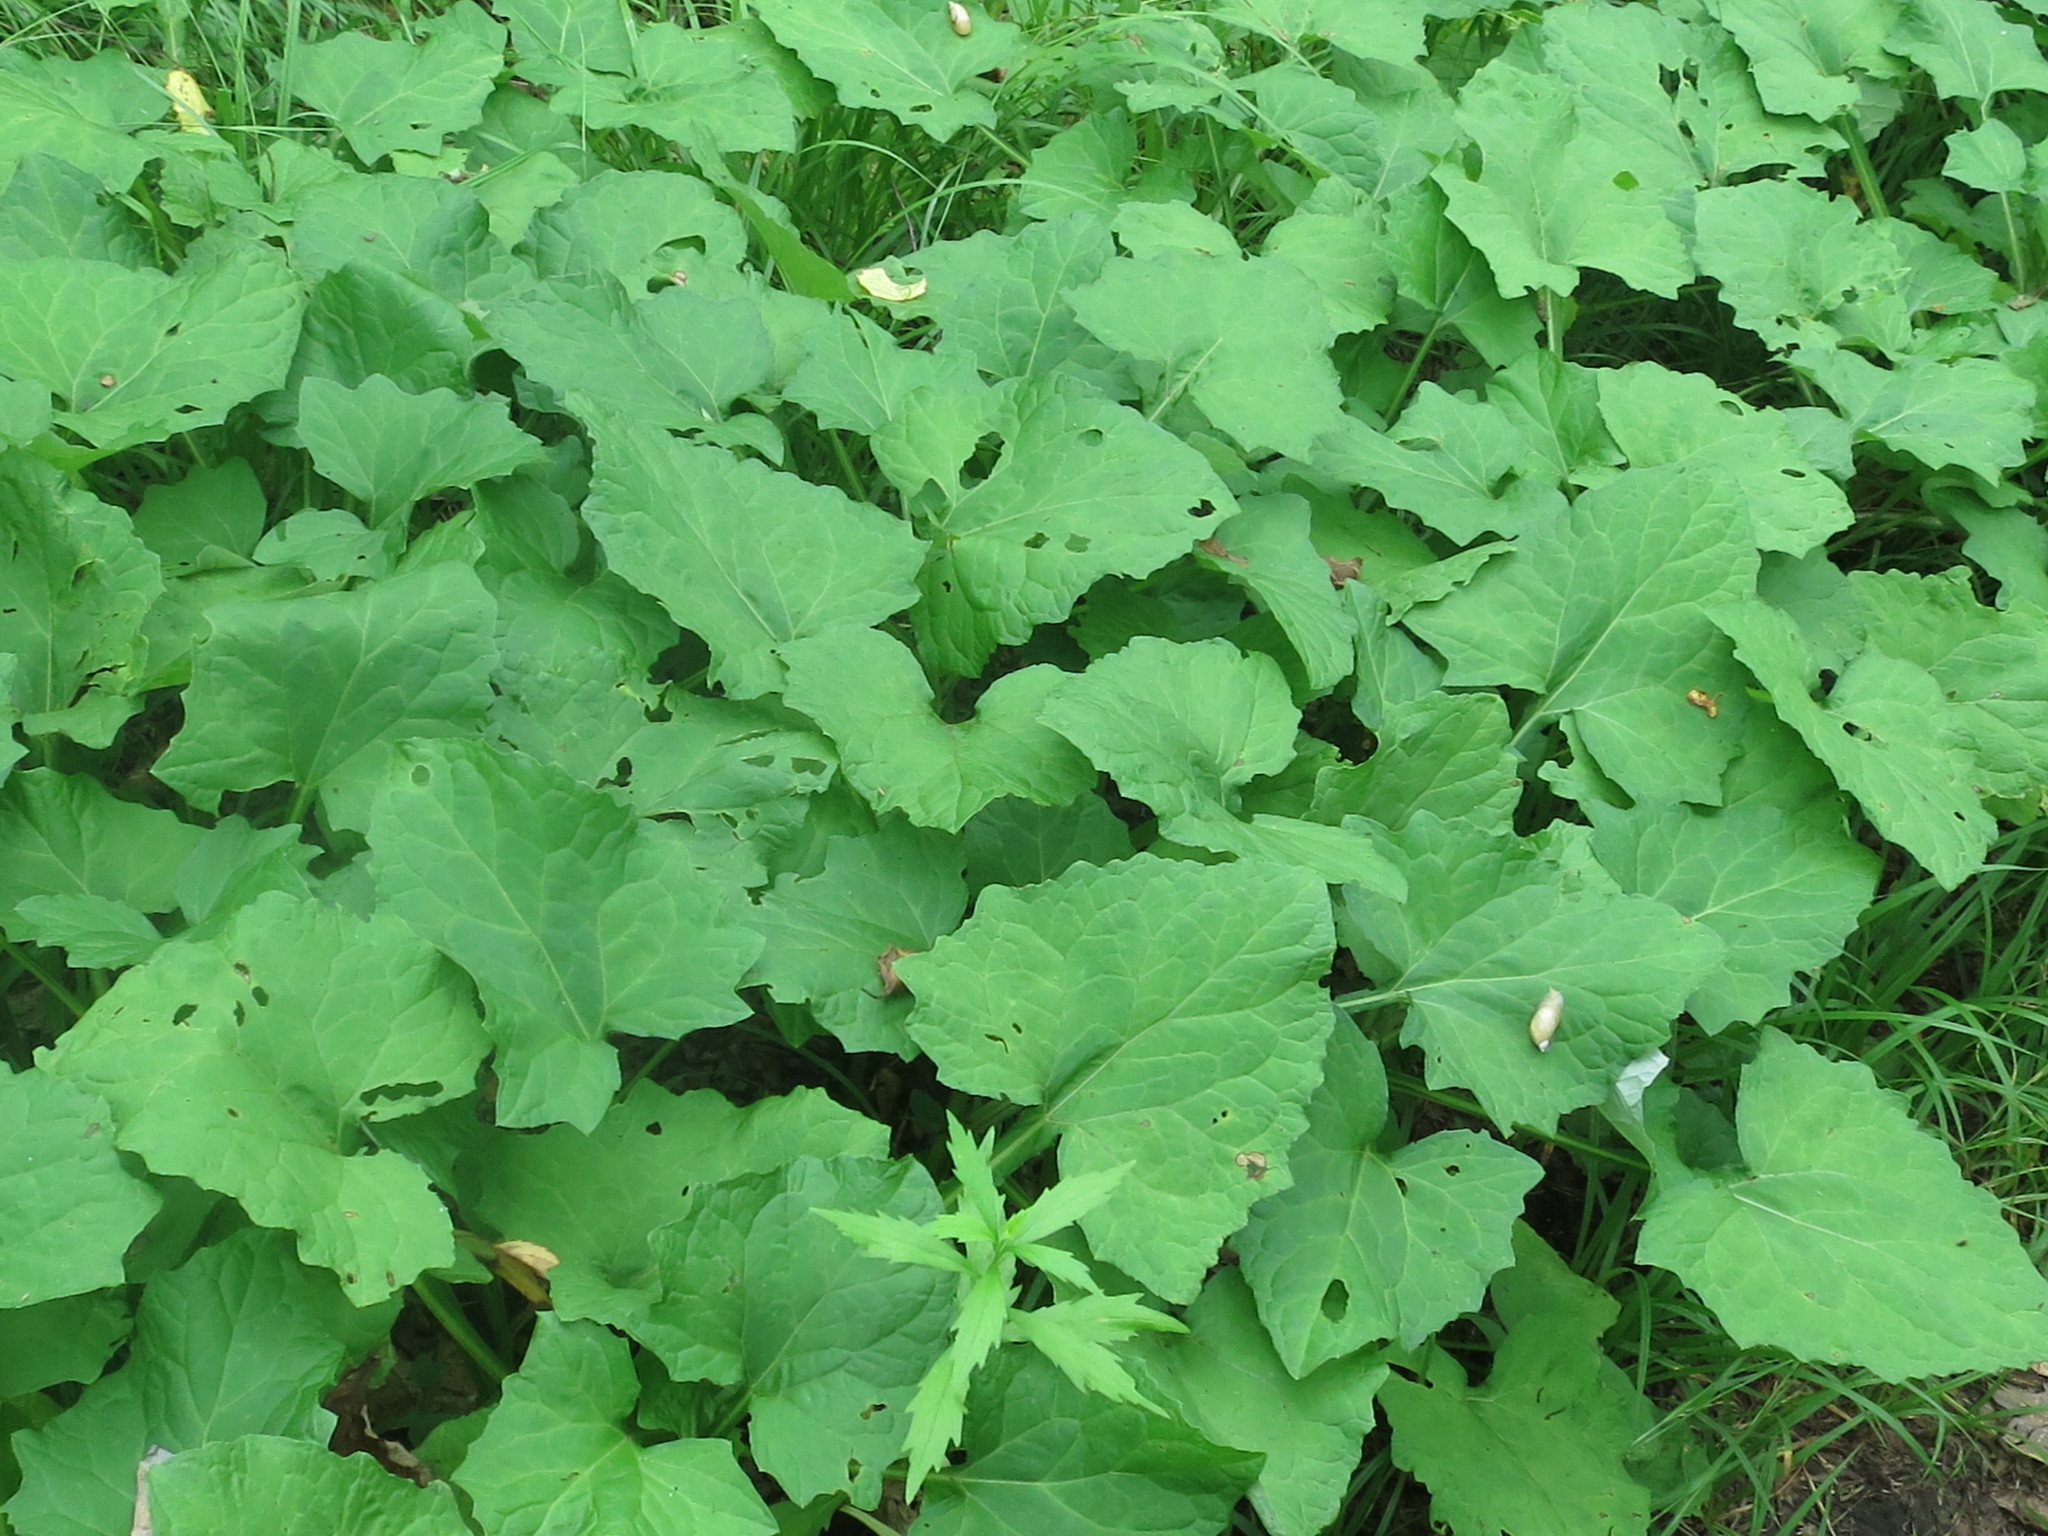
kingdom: Plantae
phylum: Tracheophyta
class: Magnoliopsida
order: Asterales
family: Asteraceae
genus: Adenocaulon
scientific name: Adenocaulon himalaicum
